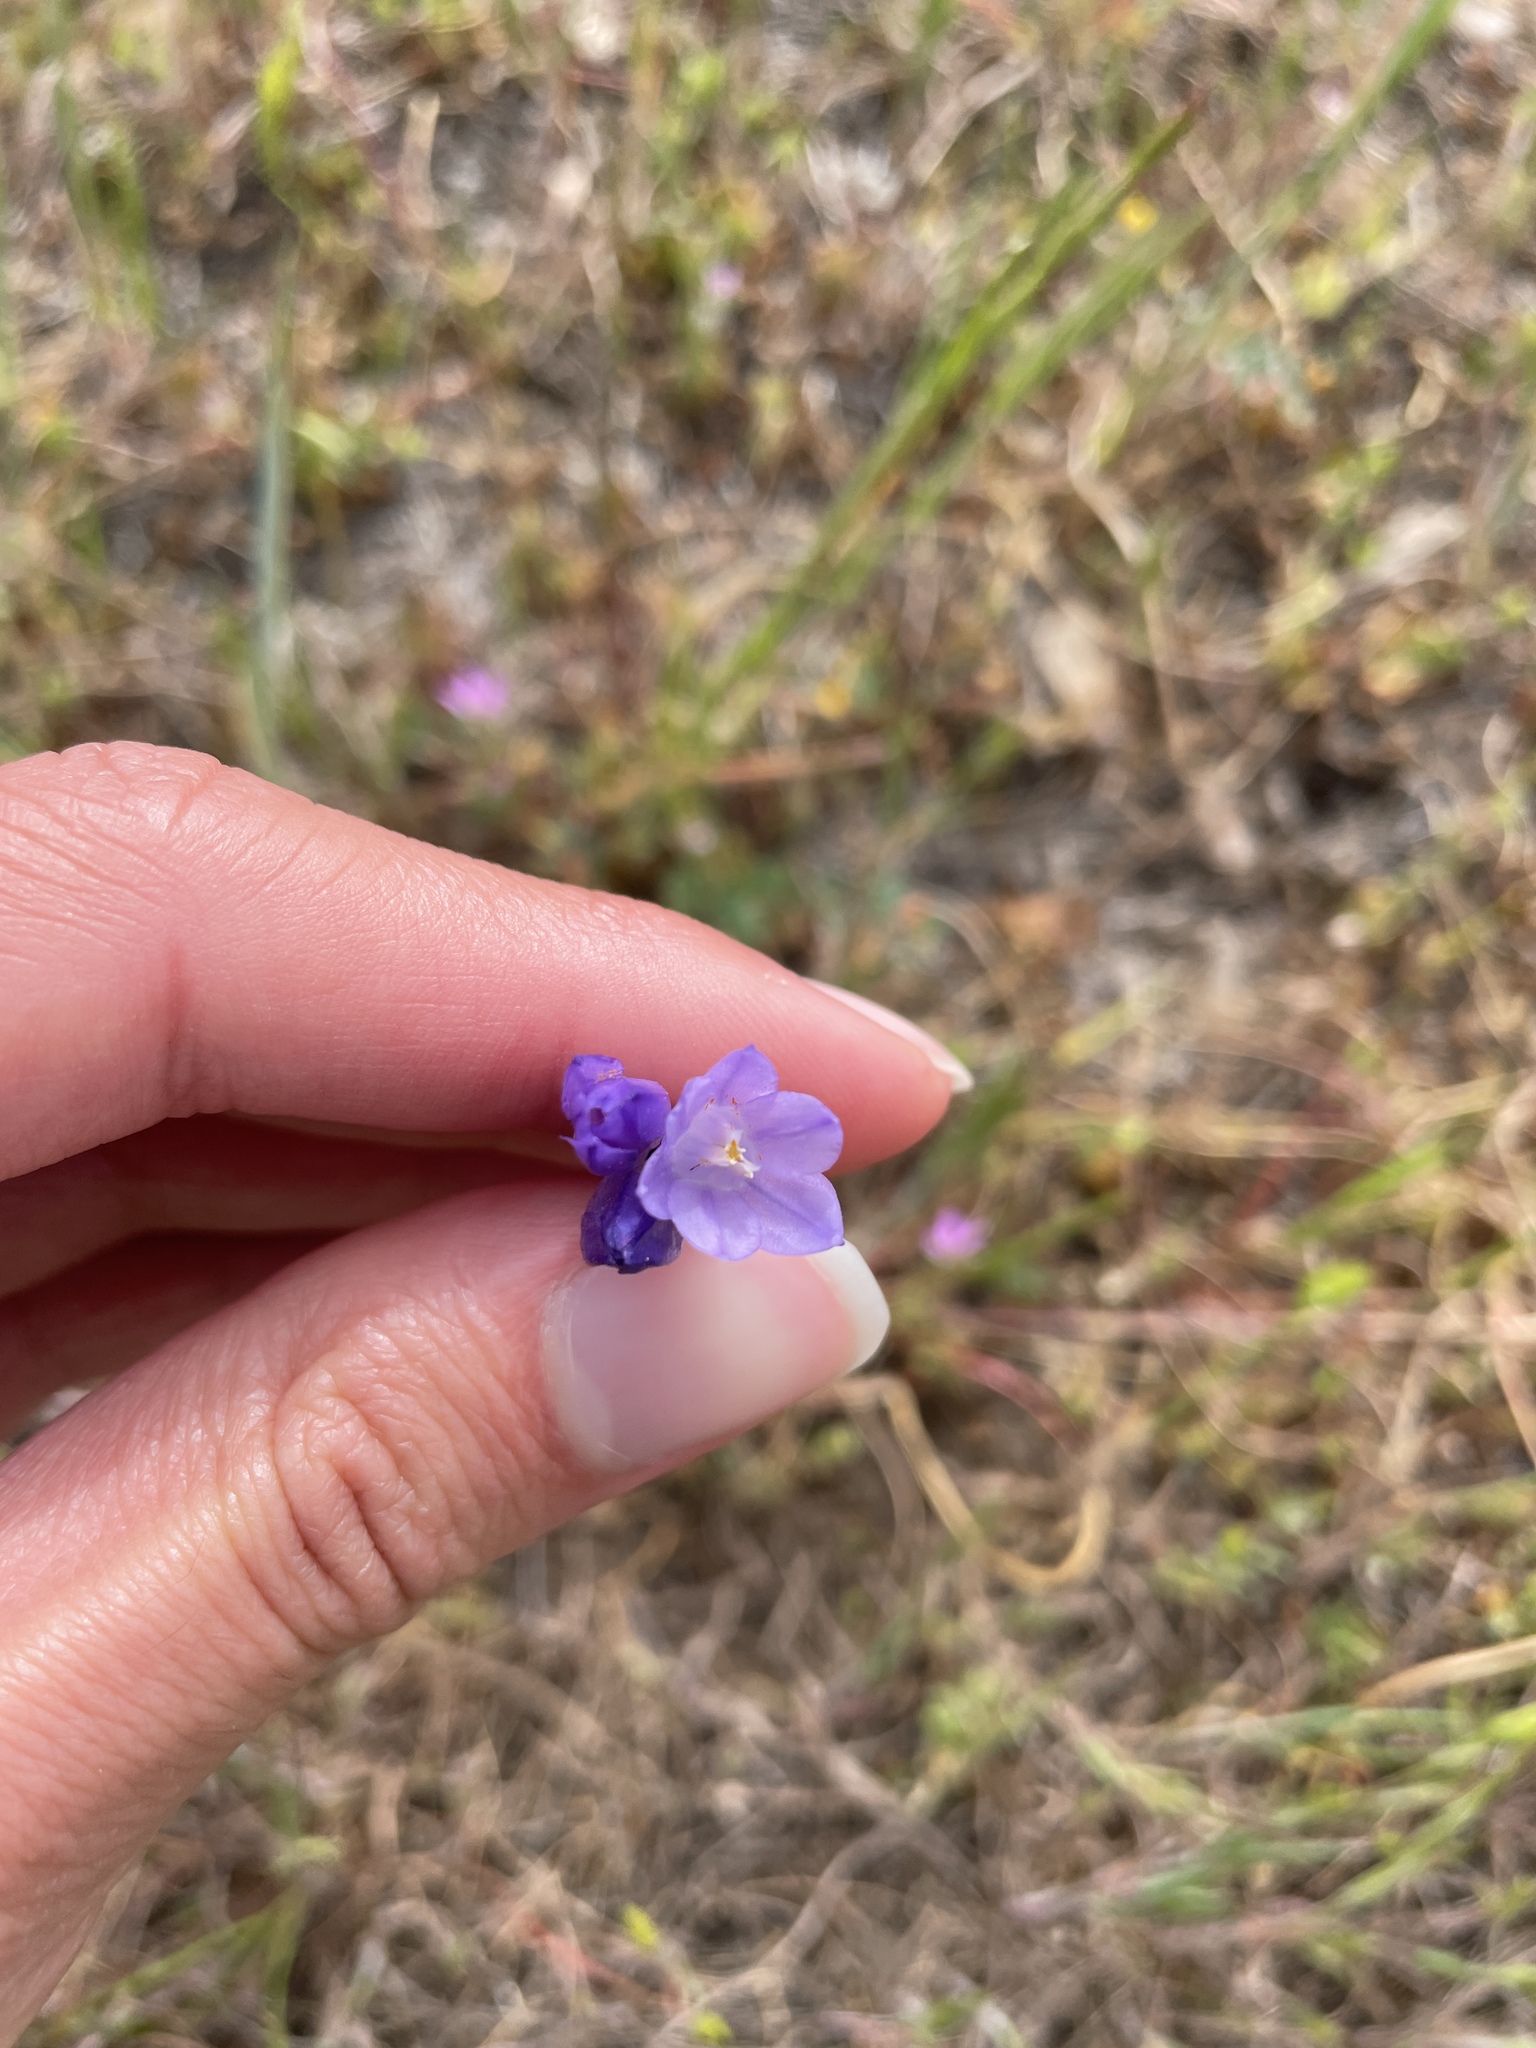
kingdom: Plantae
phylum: Tracheophyta
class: Liliopsida
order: Asparagales
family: Asparagaceae
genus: Dipterostemon
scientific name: Dipterostemon capitatus
